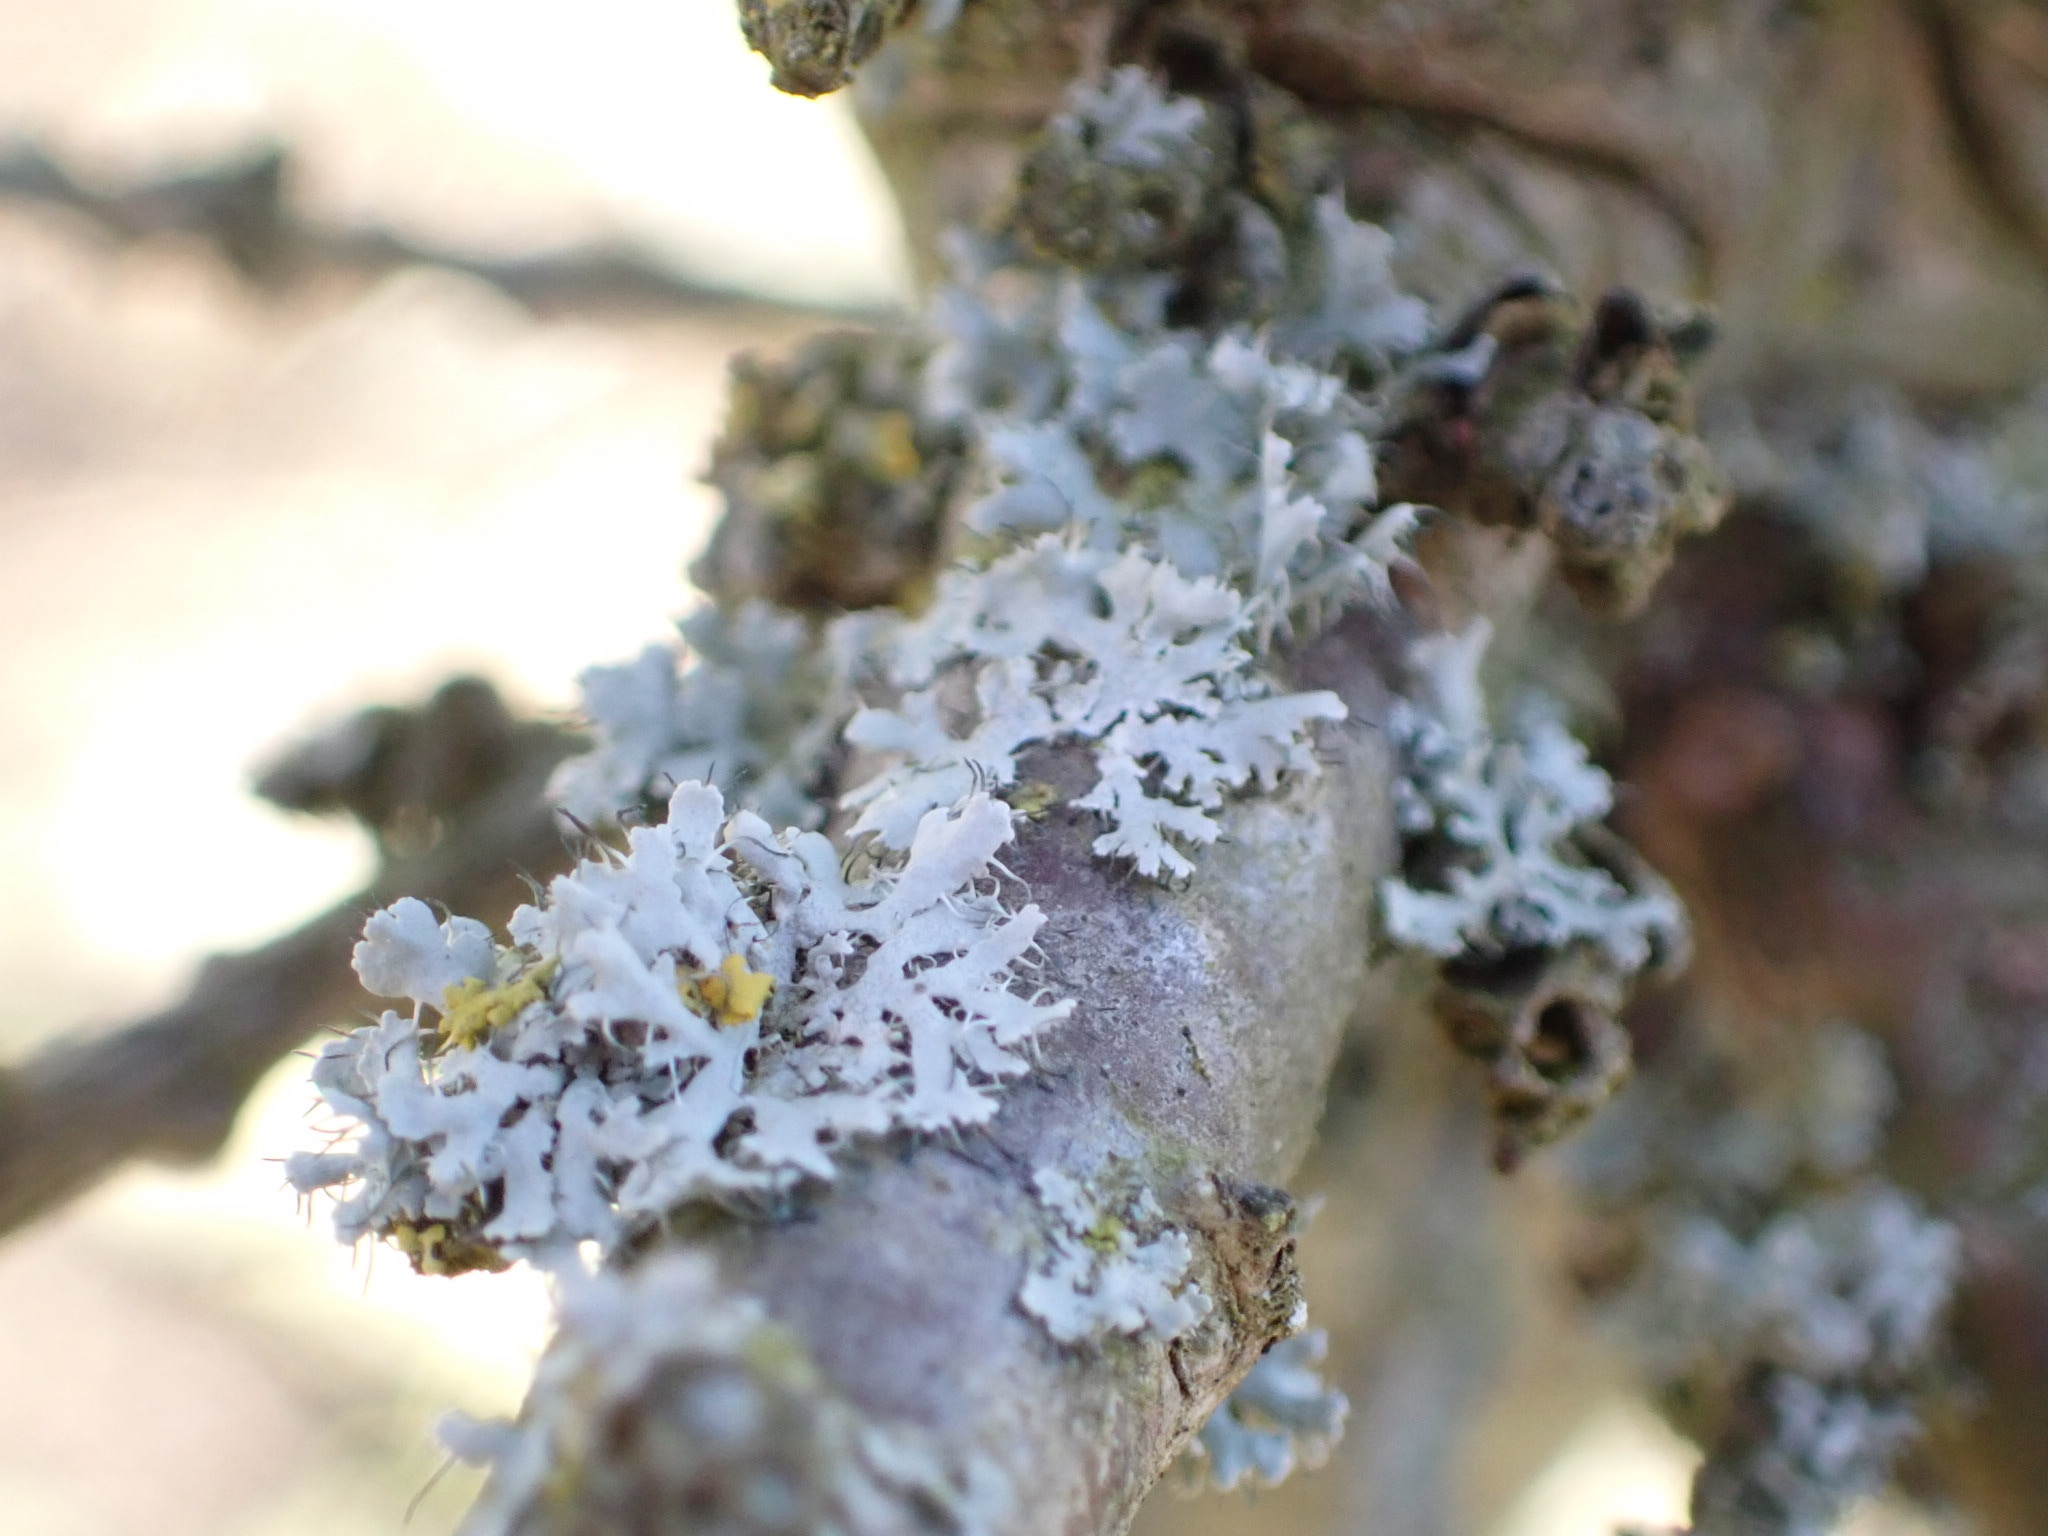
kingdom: Fungi
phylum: Ascomycota
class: Lecanoromycetes
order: Caliciales
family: Physciaceae
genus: Physcia
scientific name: Physcia adscendens
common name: Hooded rosette lichen
